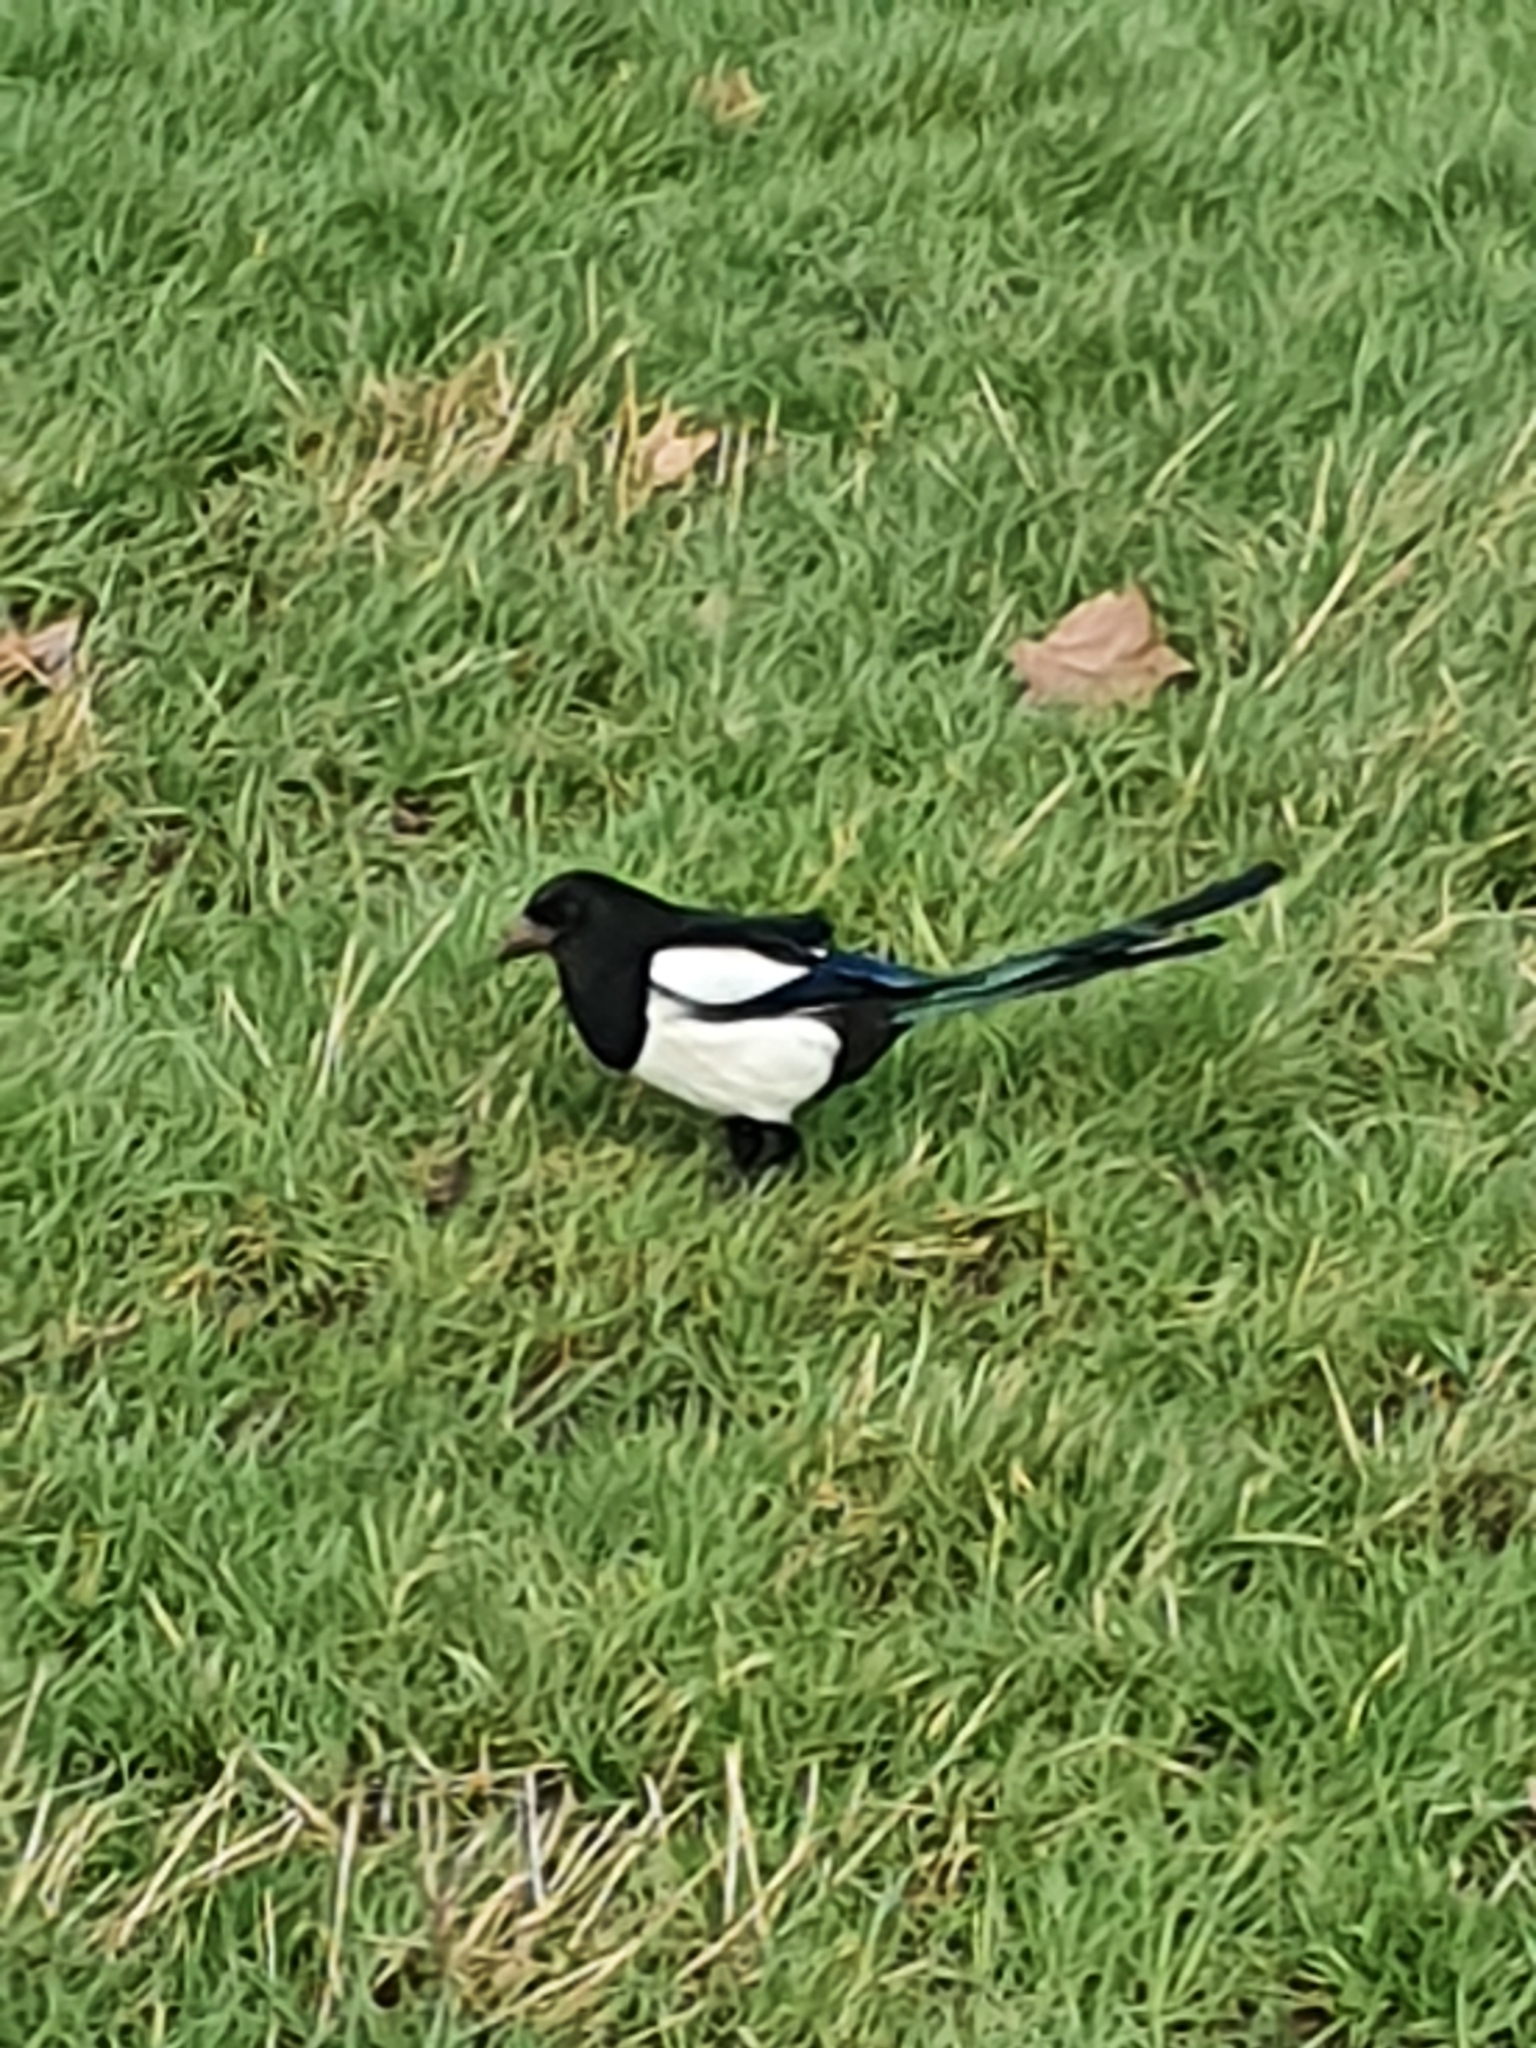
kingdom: Animalia
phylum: Chordata
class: Aves
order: Passeriformes
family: Corvidae
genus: Pica
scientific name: Pica pica
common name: Eurasian magpie
